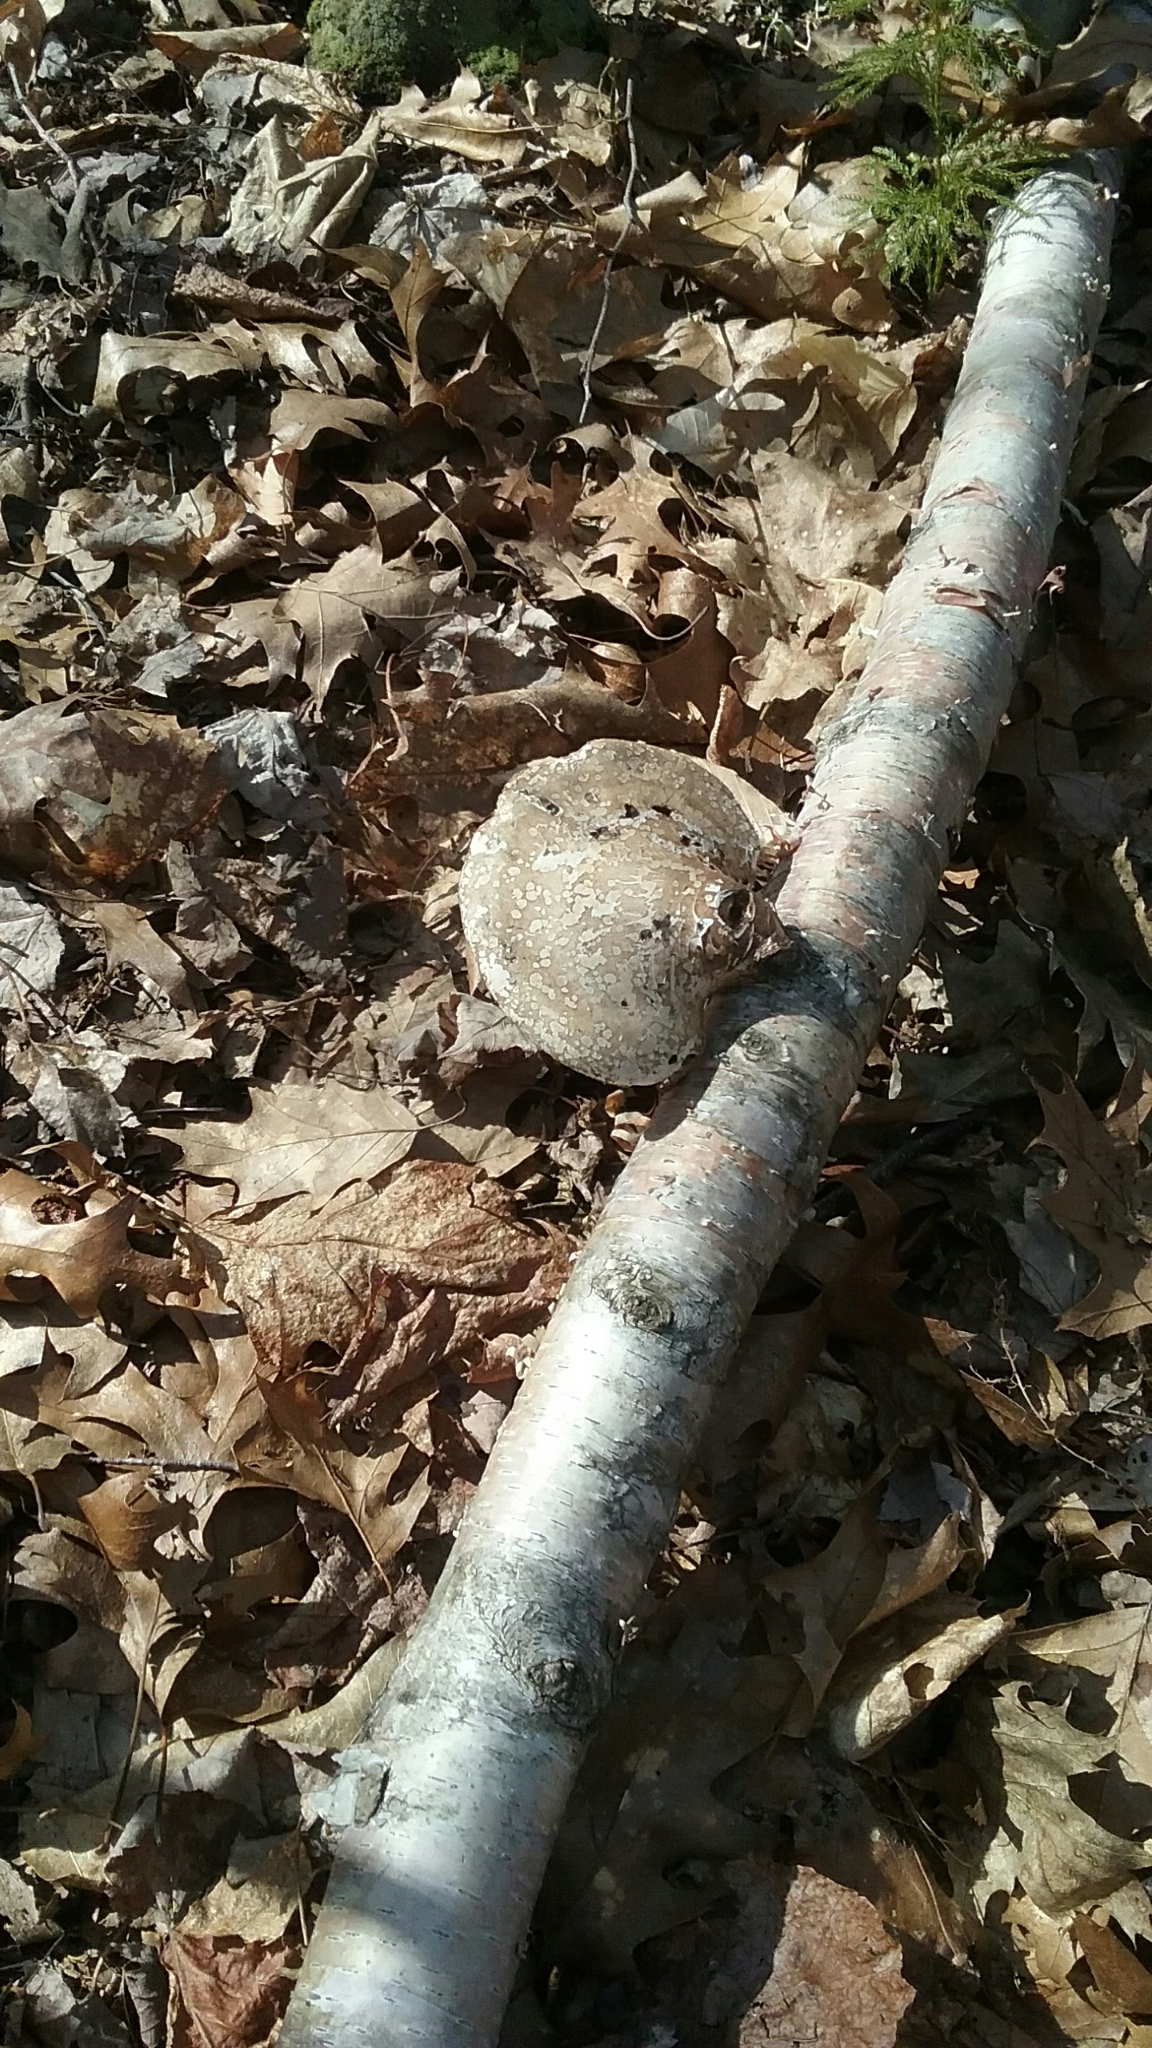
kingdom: Fungi
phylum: Basidiomycota
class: Agaricomycetes
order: Polyporales
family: Fomitopsidaceae
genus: Fomitopsis
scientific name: Fomitopsis betulina
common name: Birch polypore
